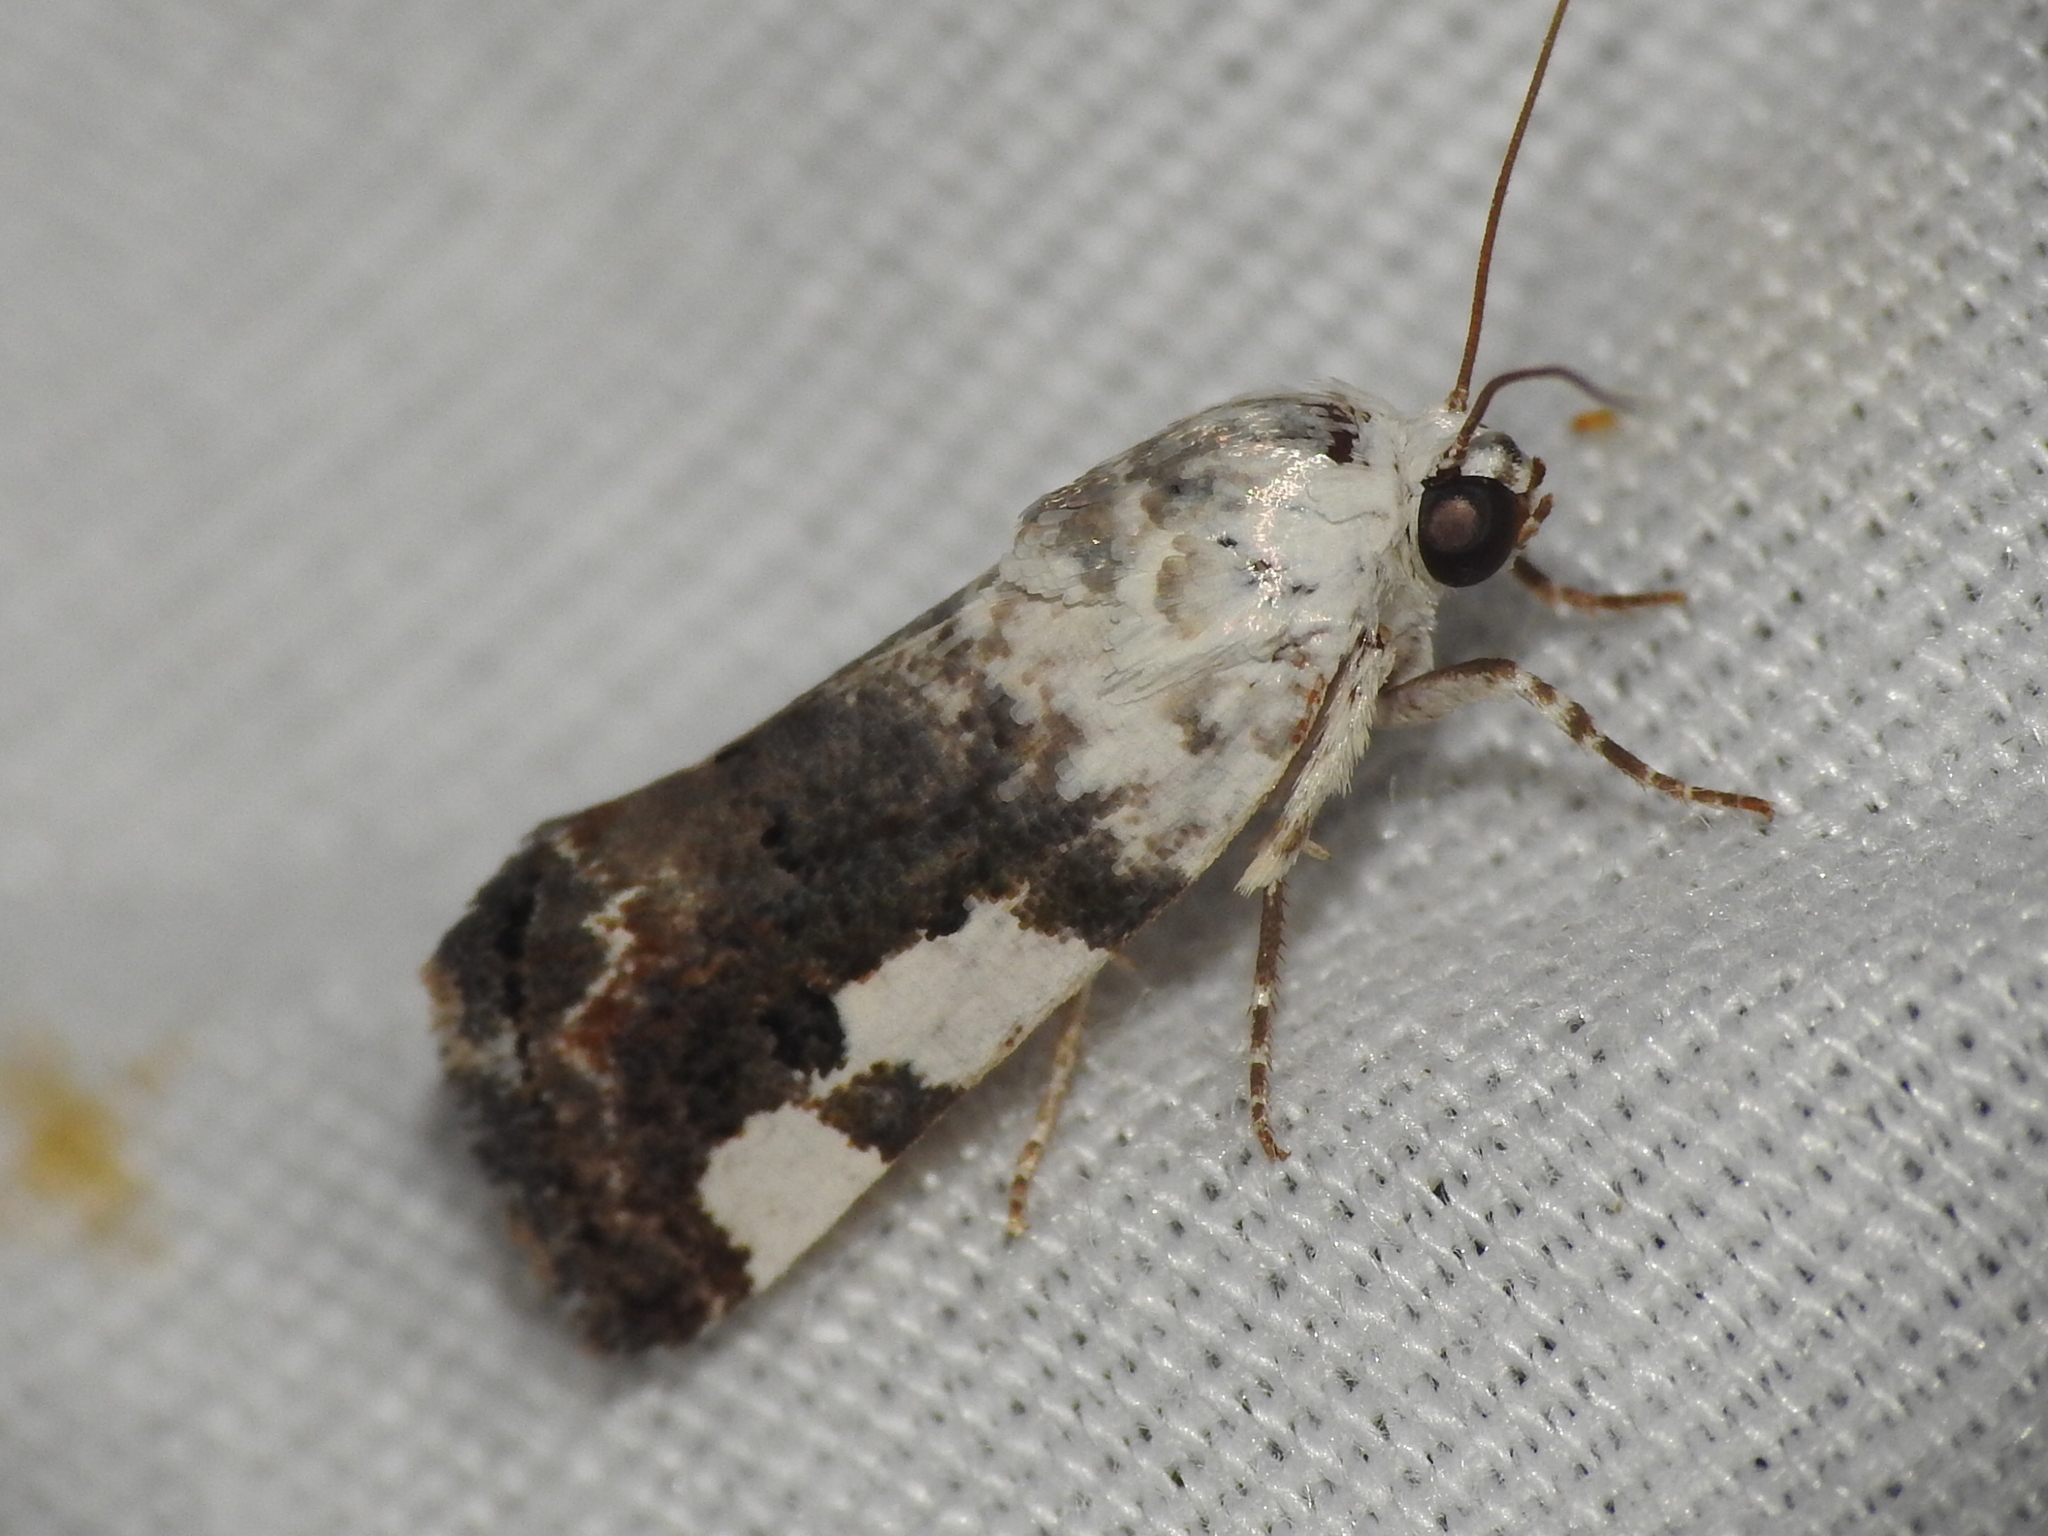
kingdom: Animalia
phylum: Arthropoda
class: Insecta
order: Lepidoptera
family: Noctuidae
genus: Acontia
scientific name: Acontia quadriplaga
